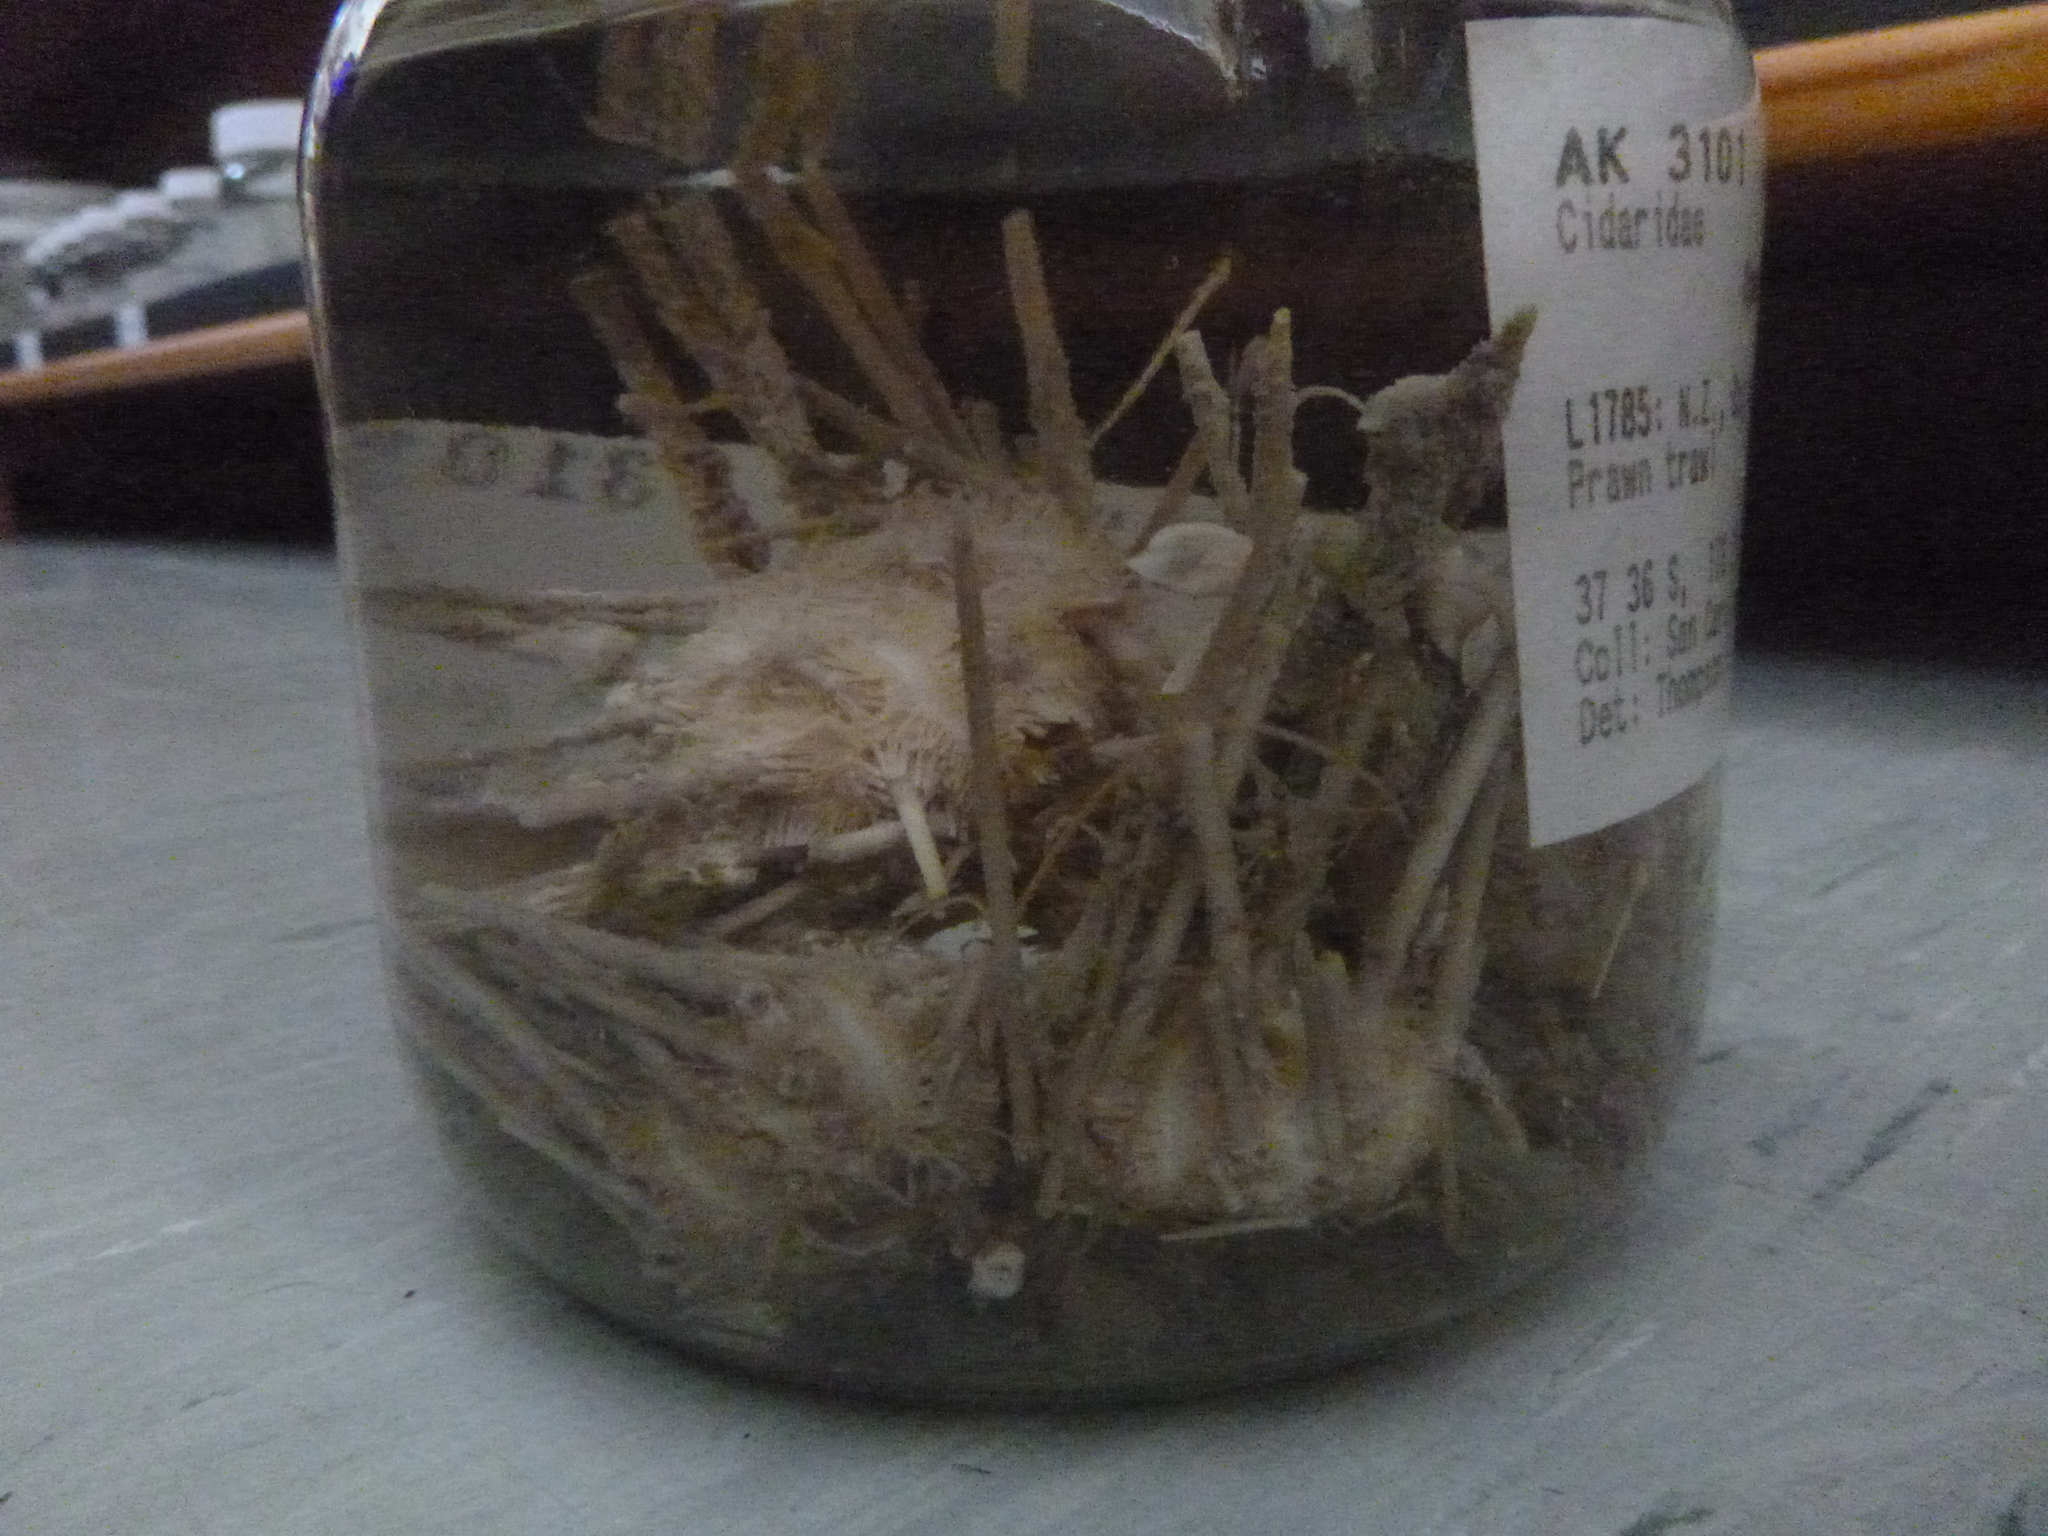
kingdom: Animalia
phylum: Echinodermata
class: Echinoidea
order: Cidaroida
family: Cidaridae
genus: Ogmocidaris
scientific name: Ogmocidaris benhami
